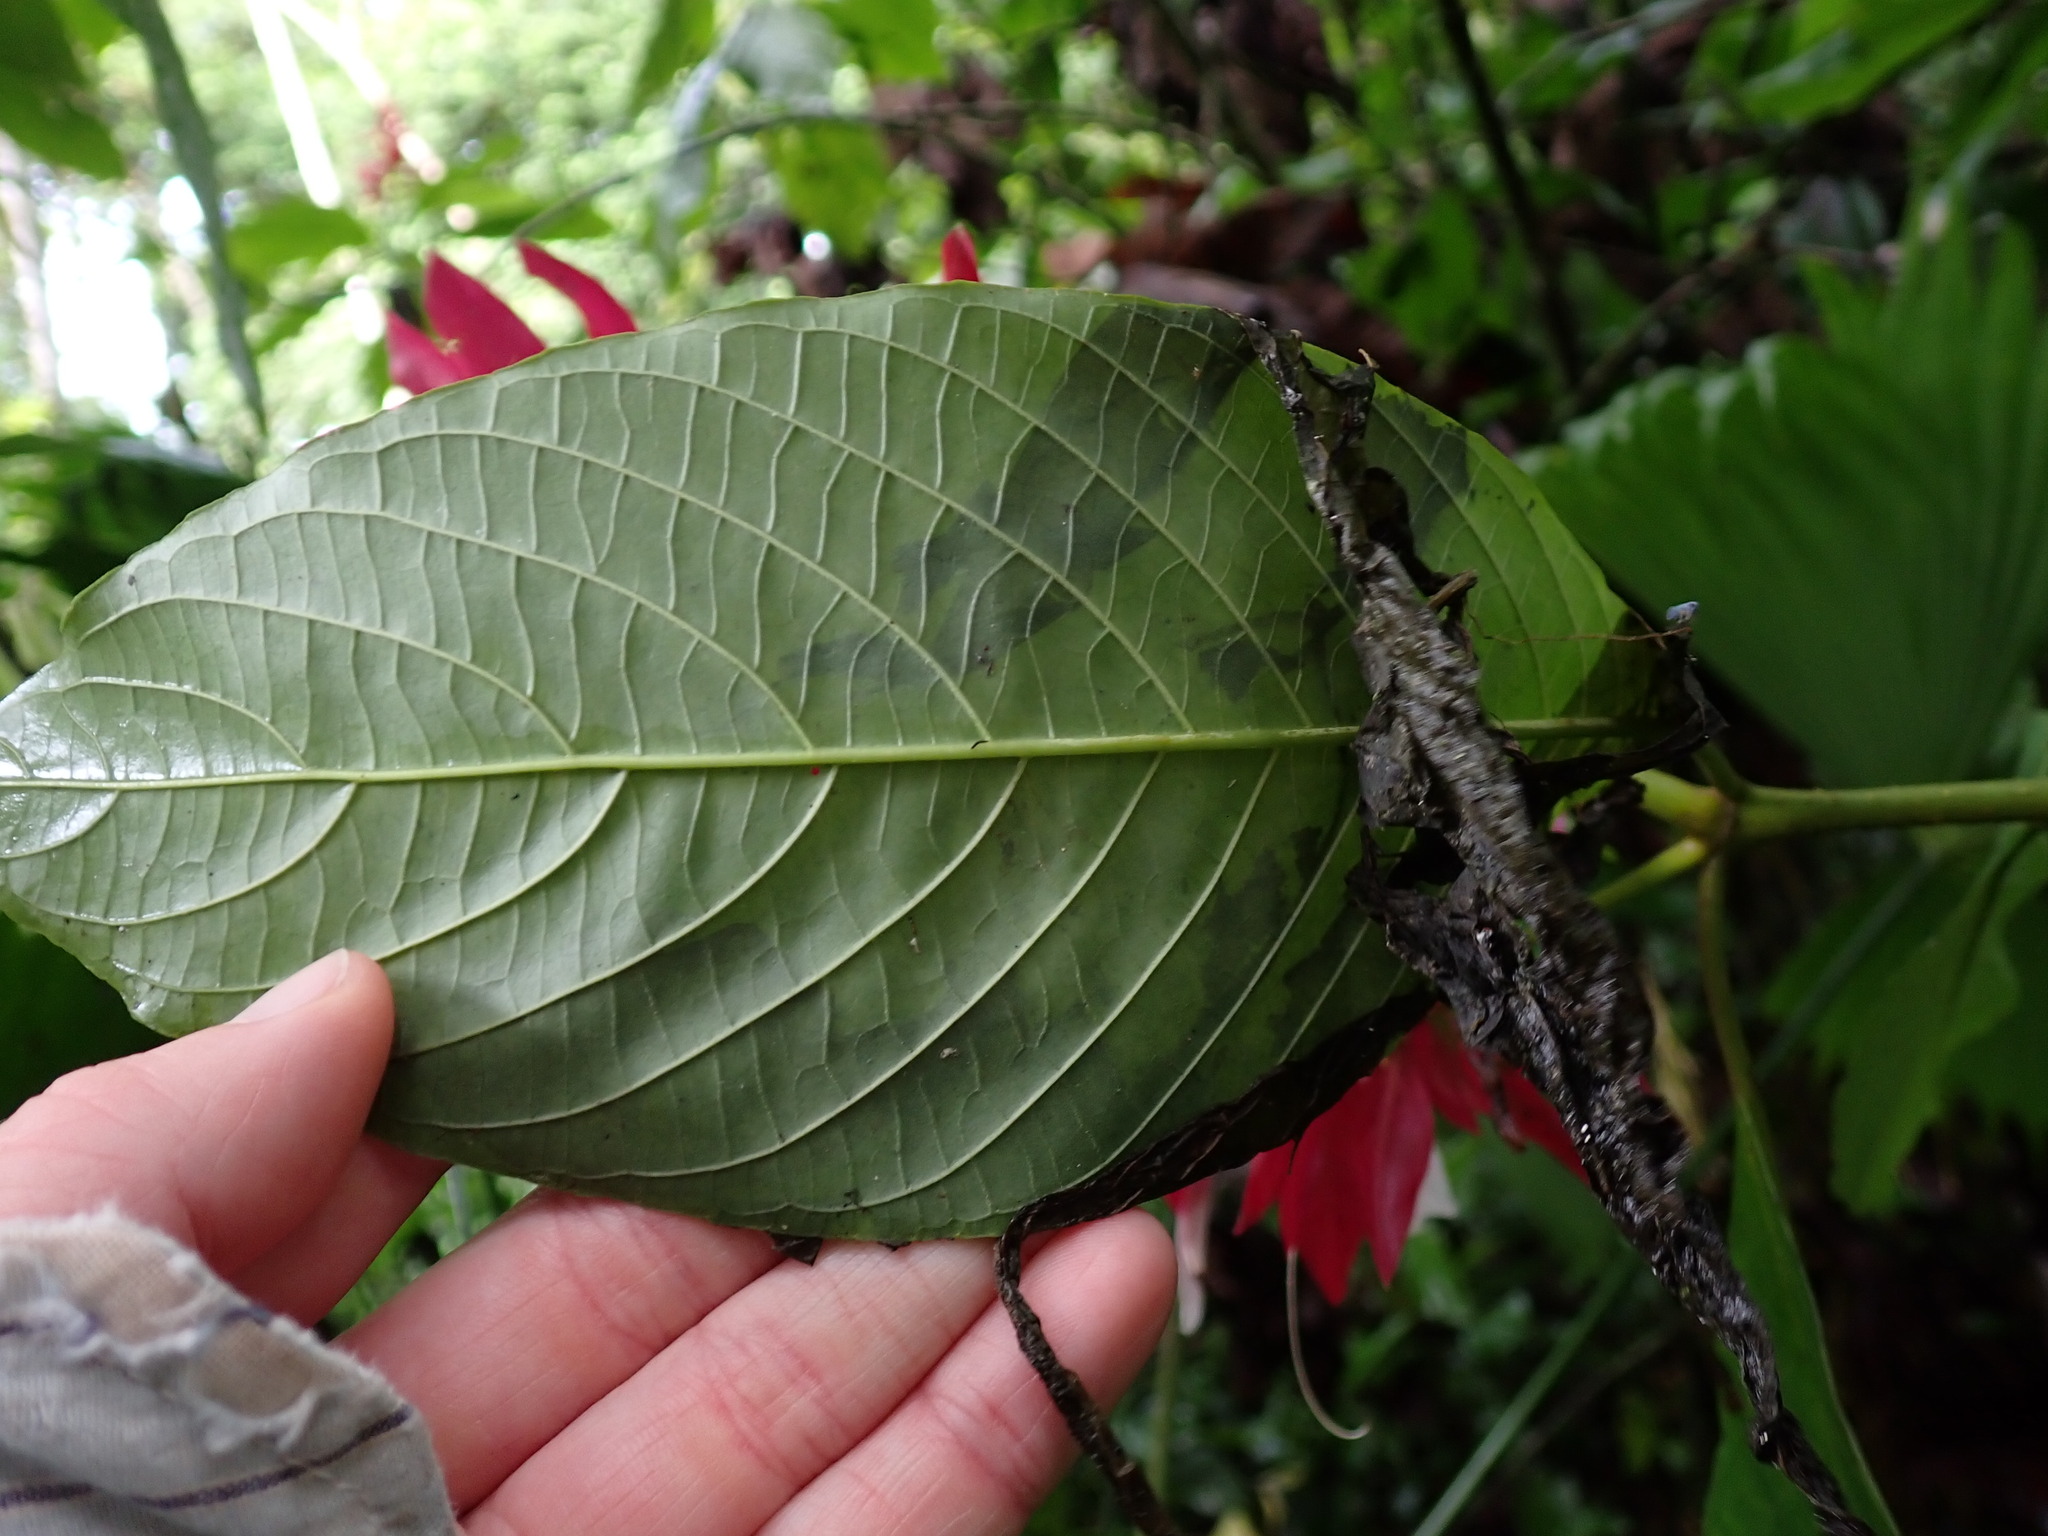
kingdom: Plantae
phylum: Tracheophyta
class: Magnoliopsida
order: Lamiales
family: Acanthaceae
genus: Megaskepasma
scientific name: Megaskepasma erythrochlamys
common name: Brazilian red-cloak
